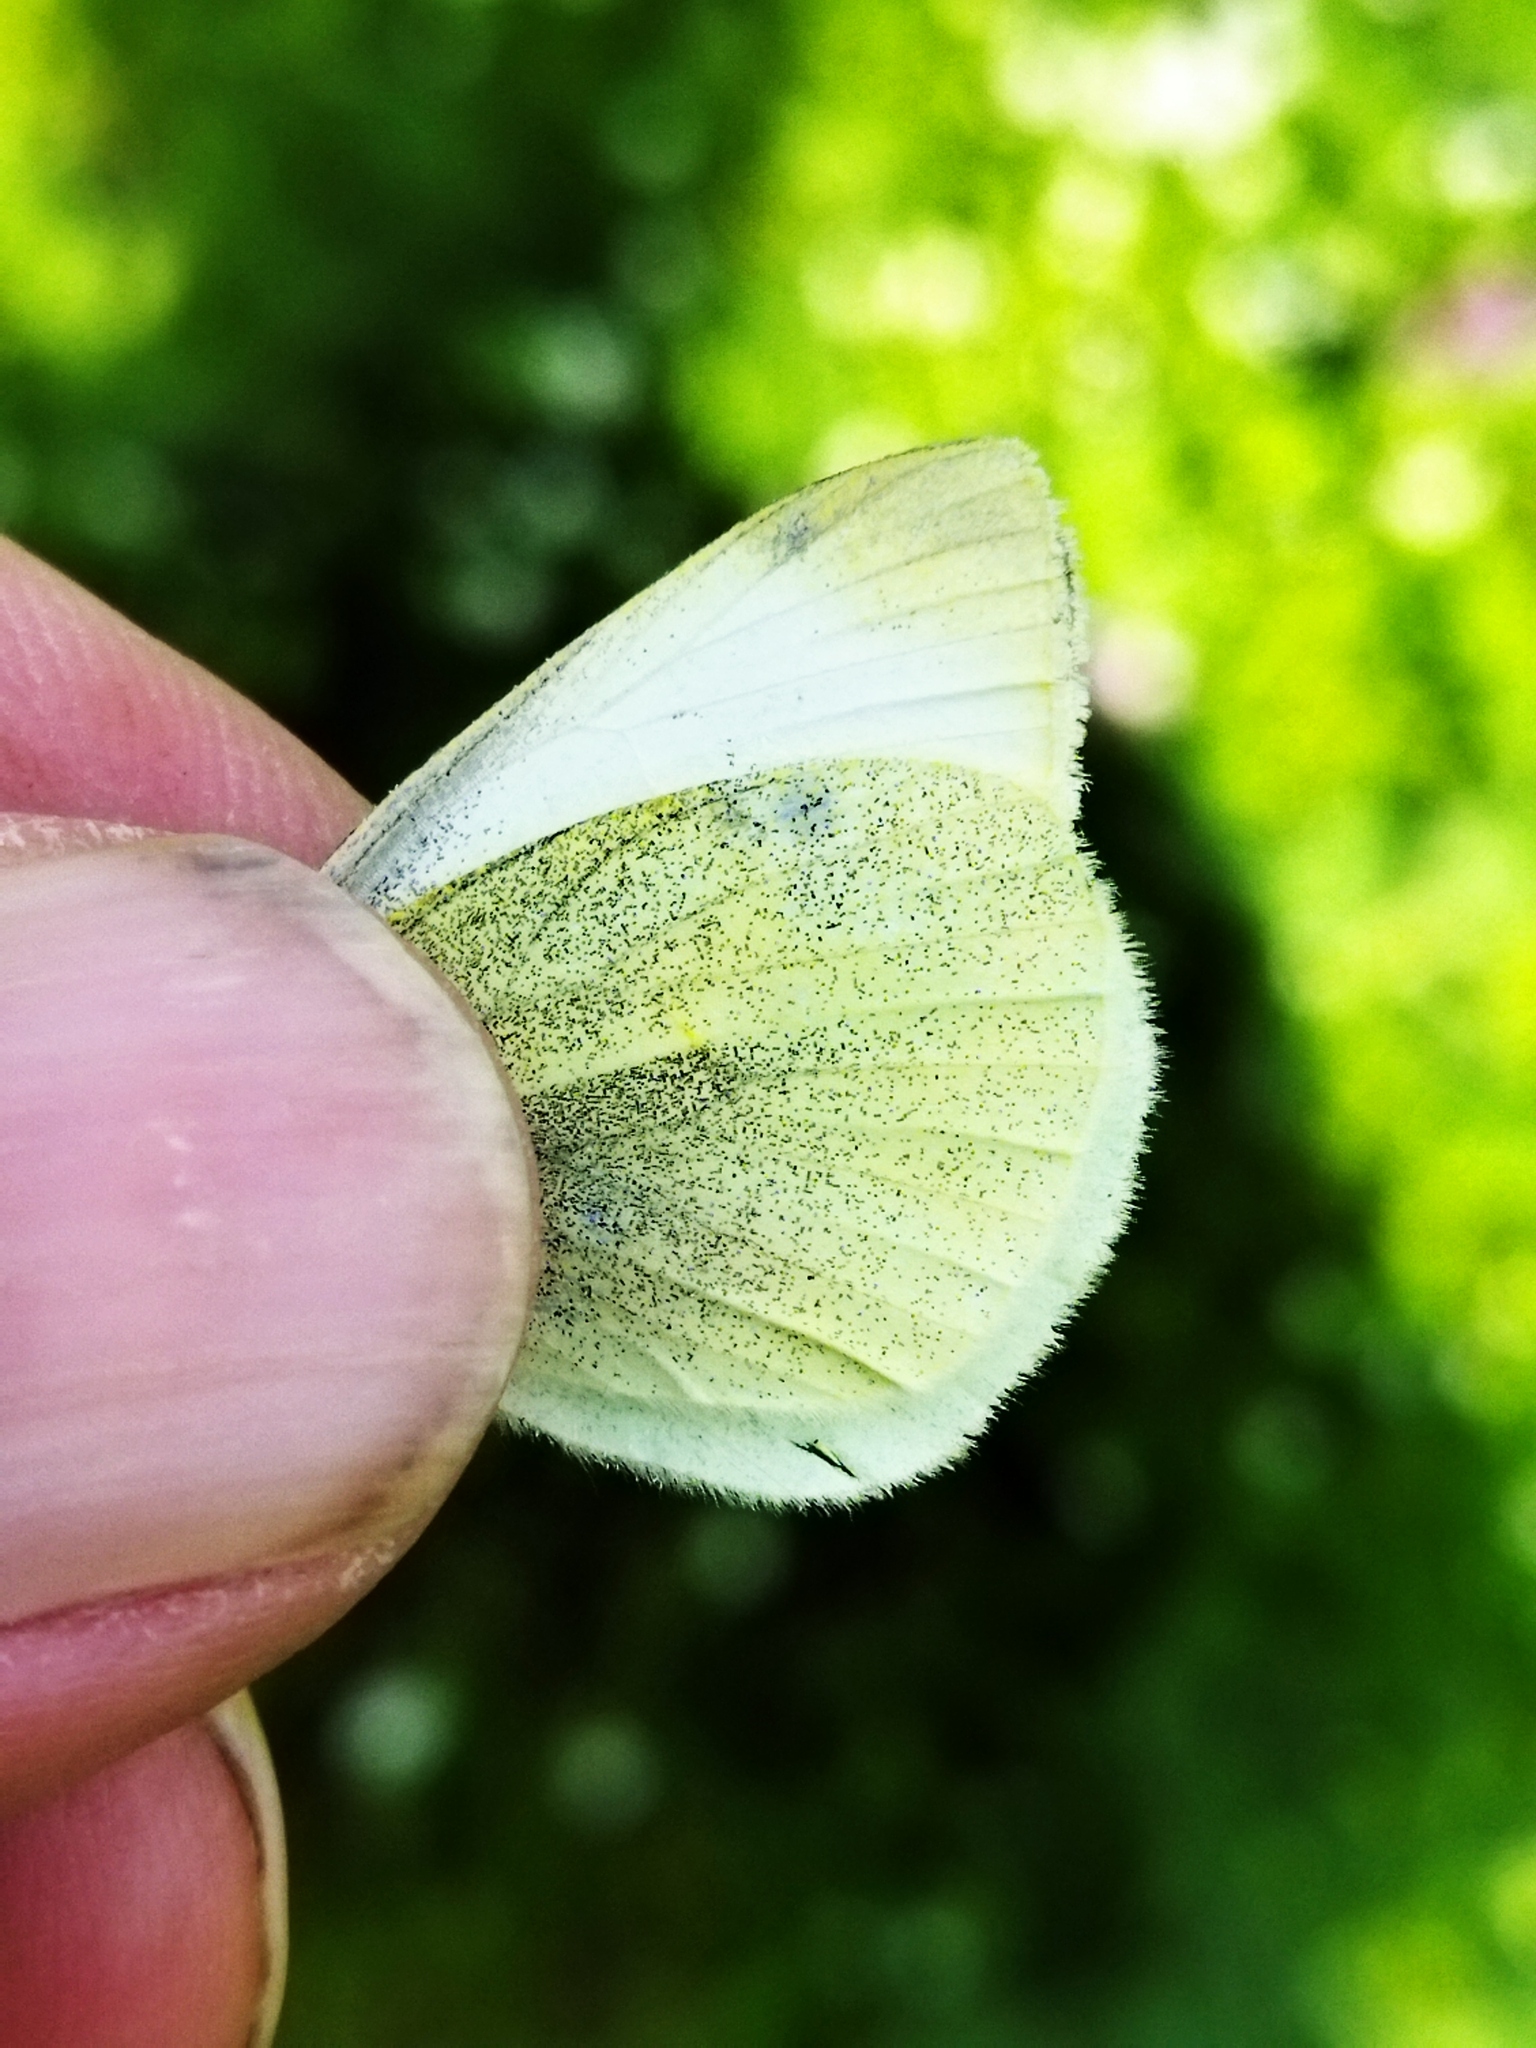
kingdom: Animalia
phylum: Arthropoda
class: Insecta
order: Lepidoptera
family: Pieridae
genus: Pieris
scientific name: Pieris rapae
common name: Small white
